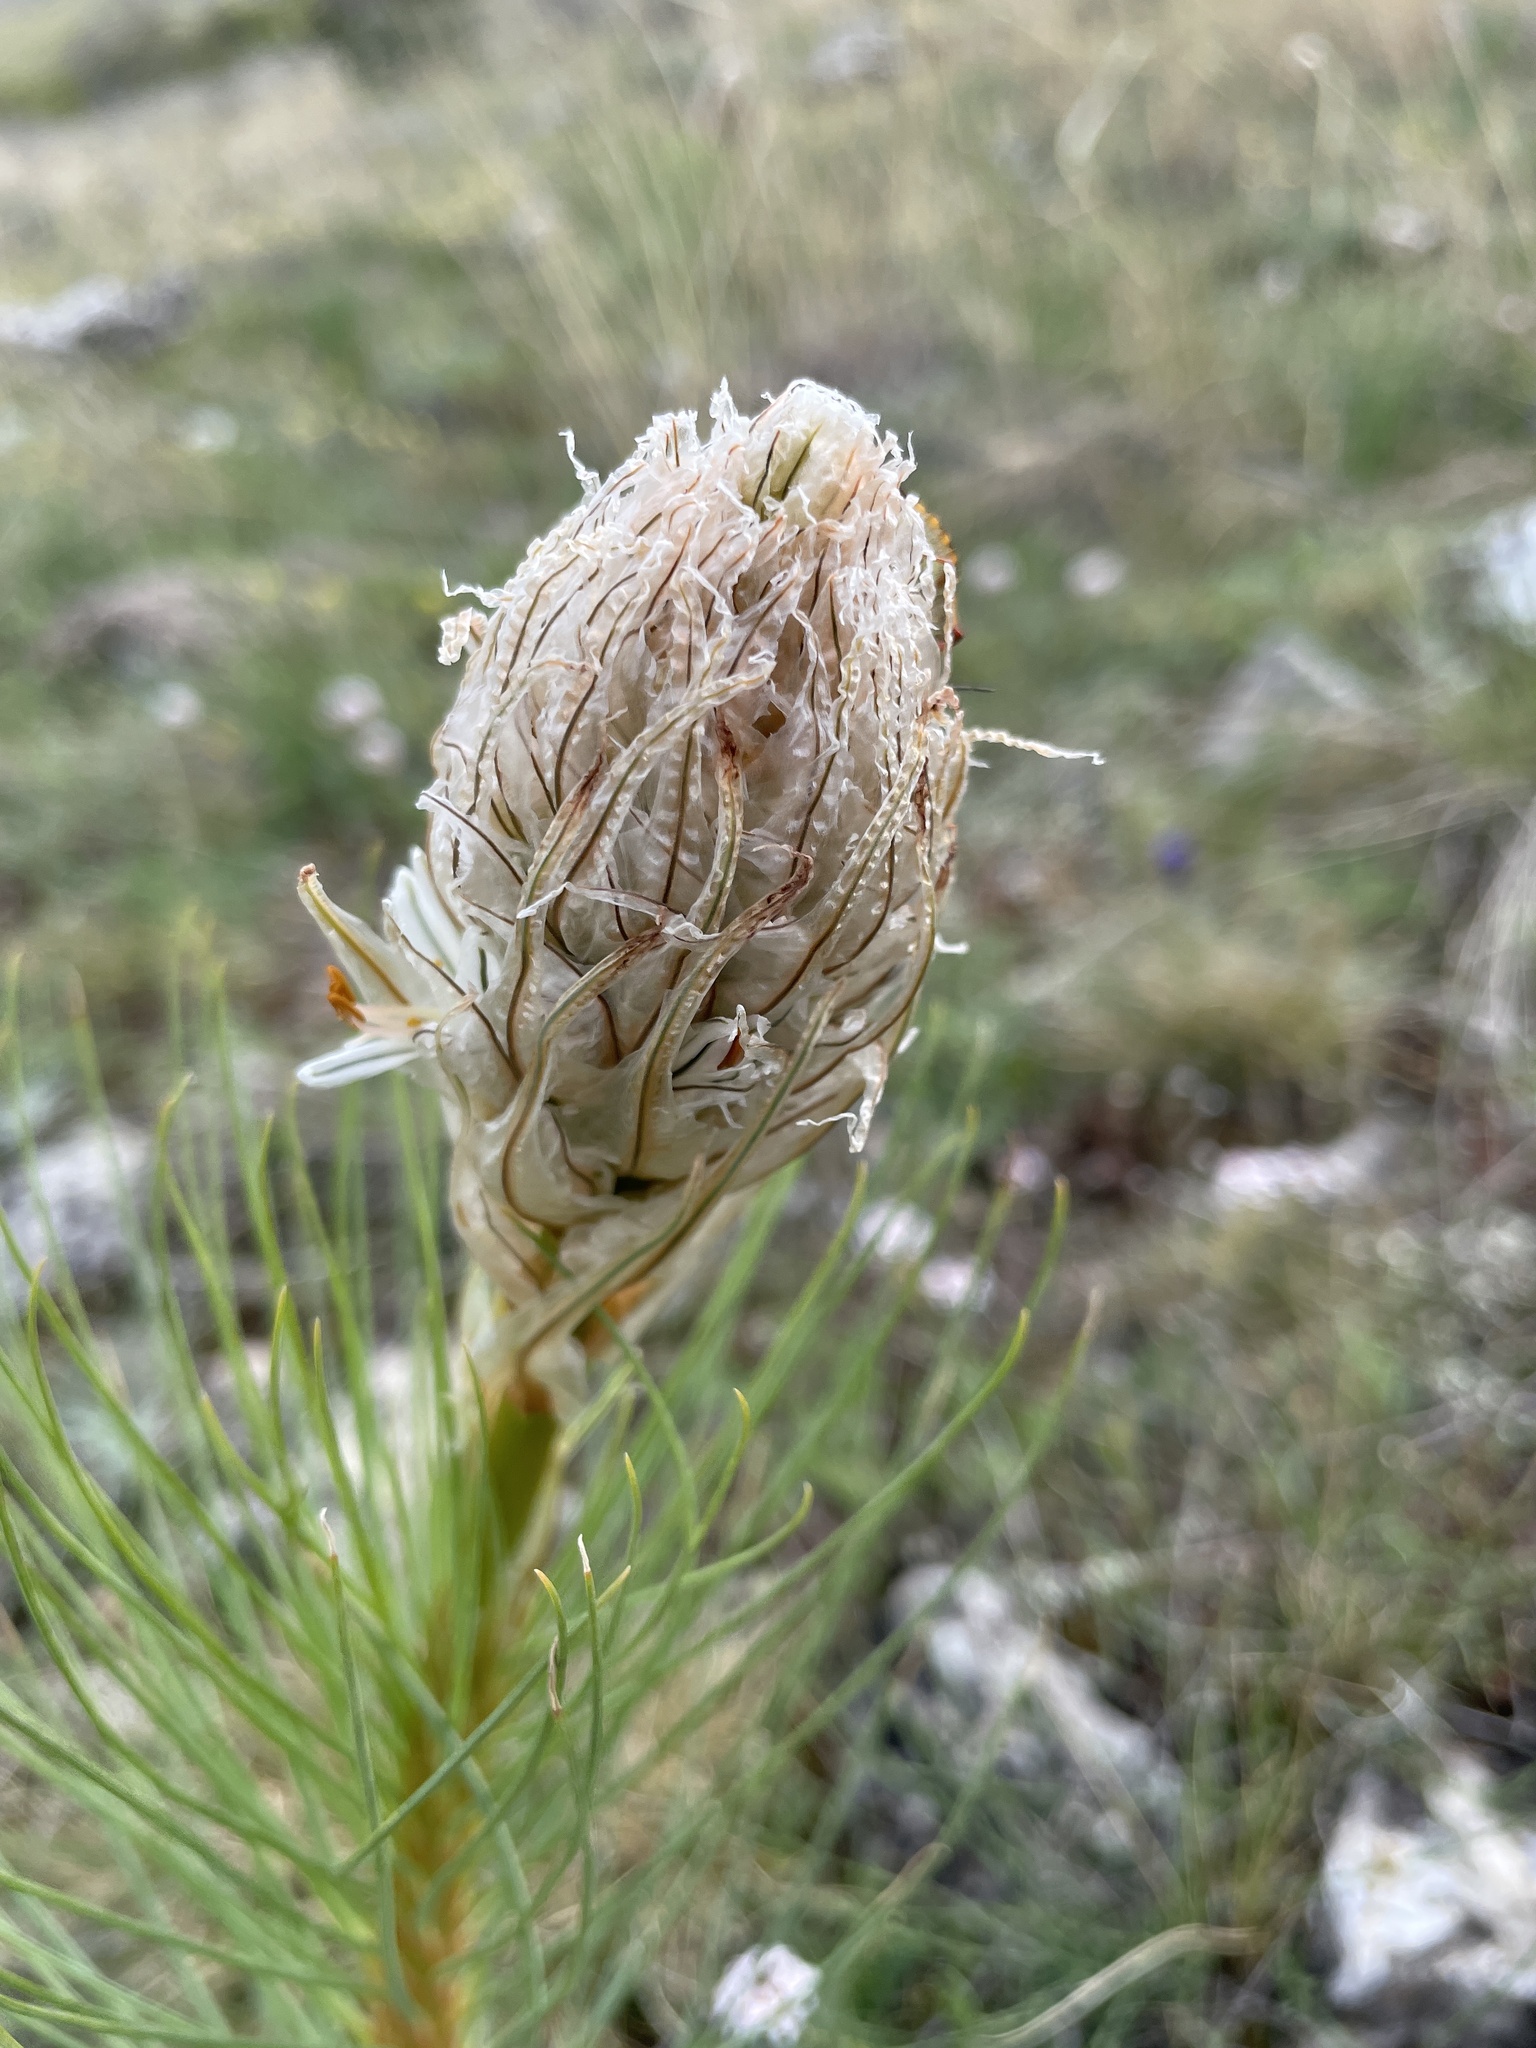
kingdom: Plantae
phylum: Tracheophyta
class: Liliopsida
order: Asparagales
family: Asphodelaceae
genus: Asphodeline
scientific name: Asphodeline taurica
